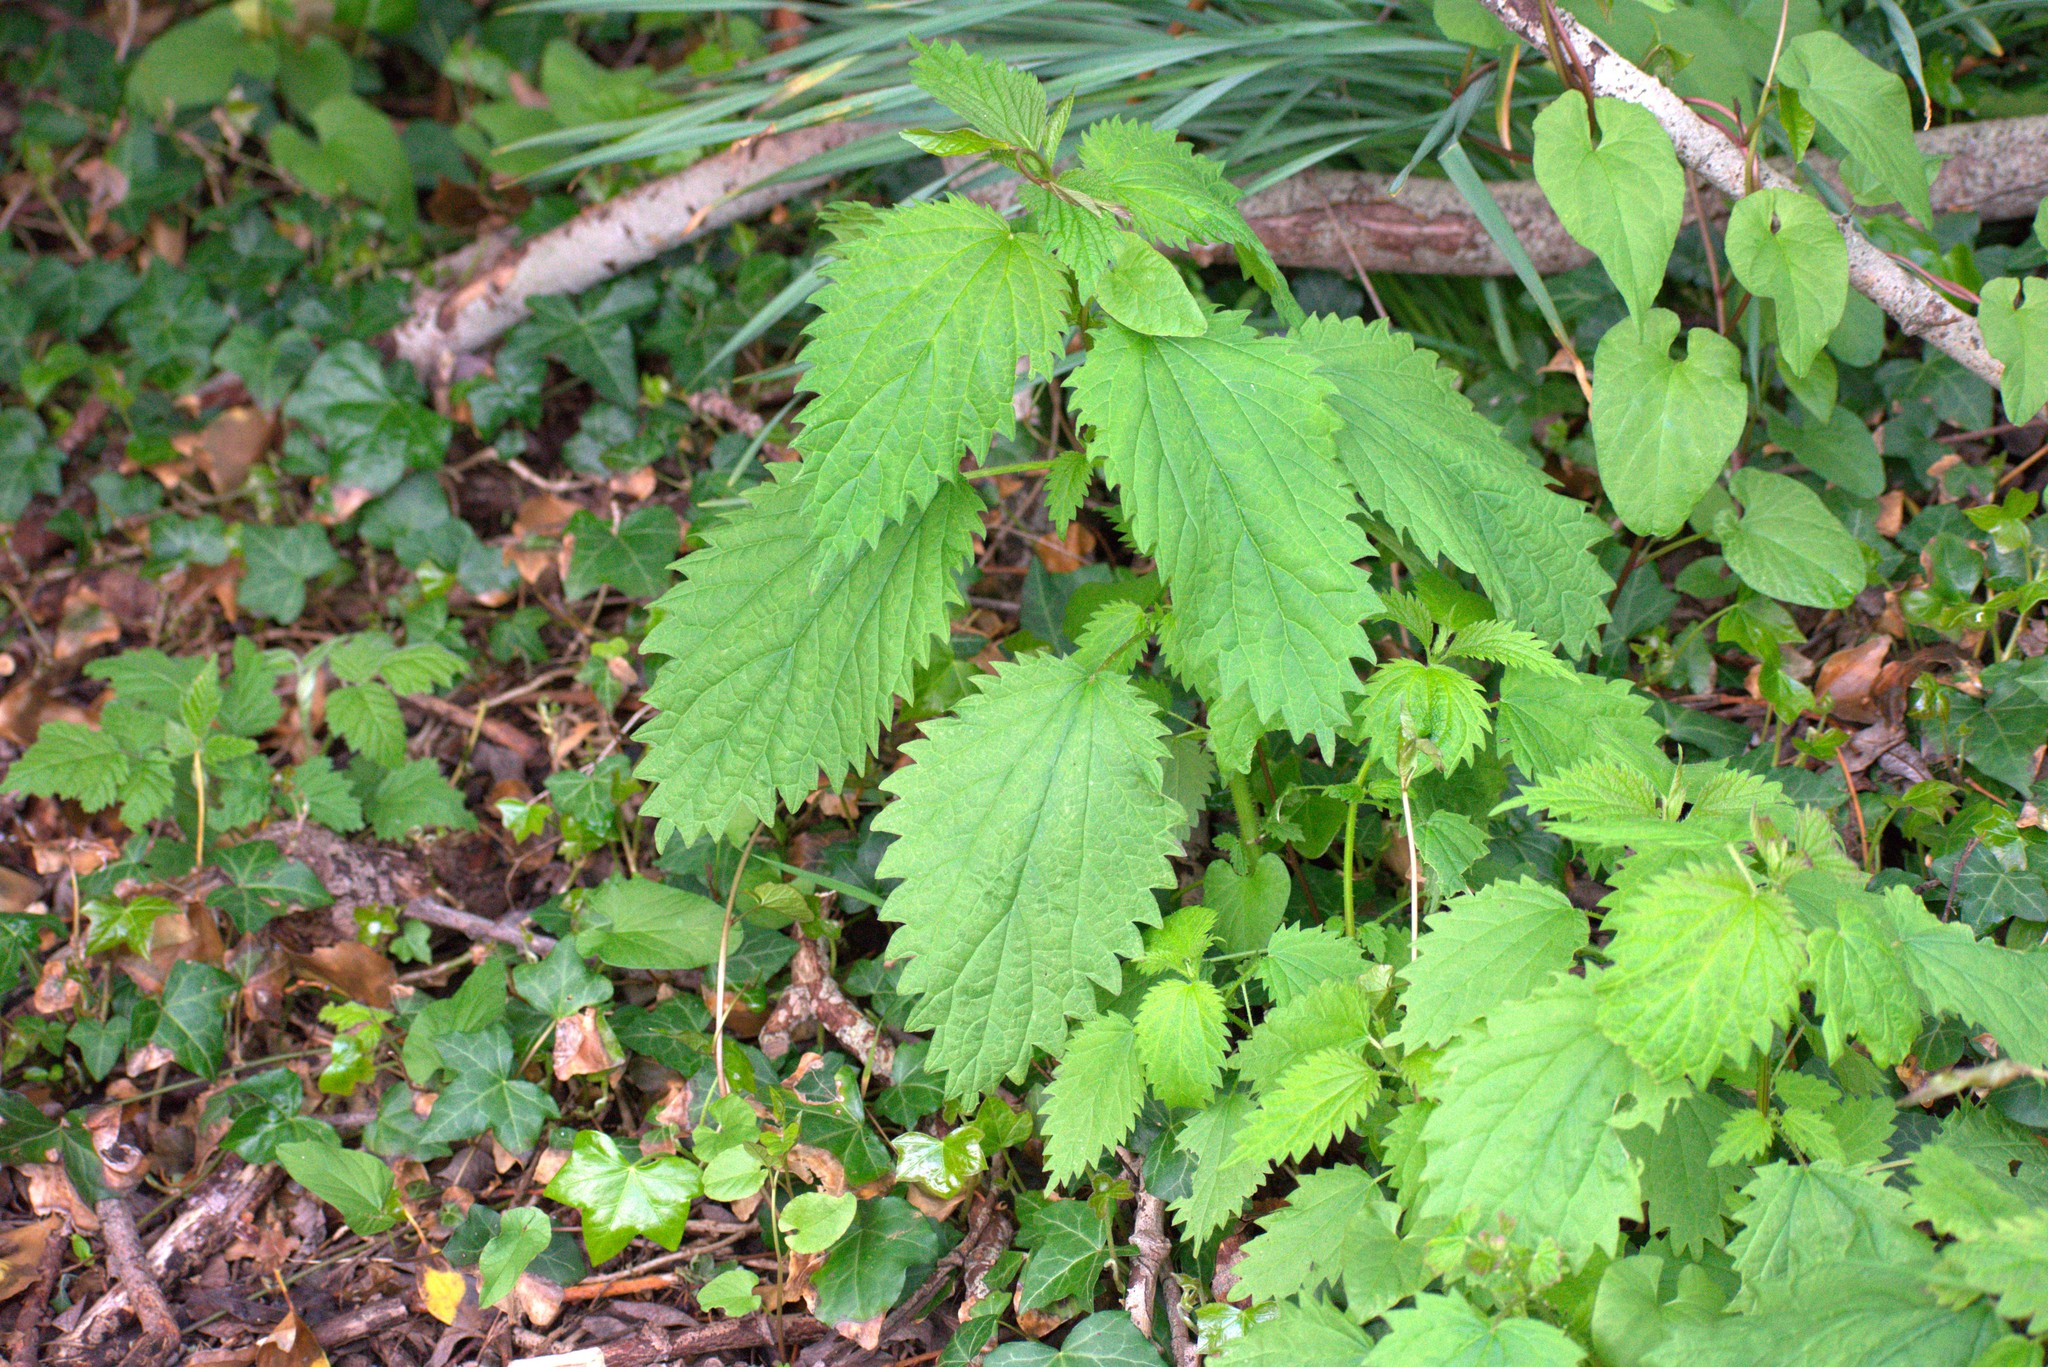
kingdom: Plantae
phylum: Tracheophyta
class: Magnoliopsida
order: Rosales
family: Urticaceae
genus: Urtica
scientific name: Urtica dioica
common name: Common nettle
